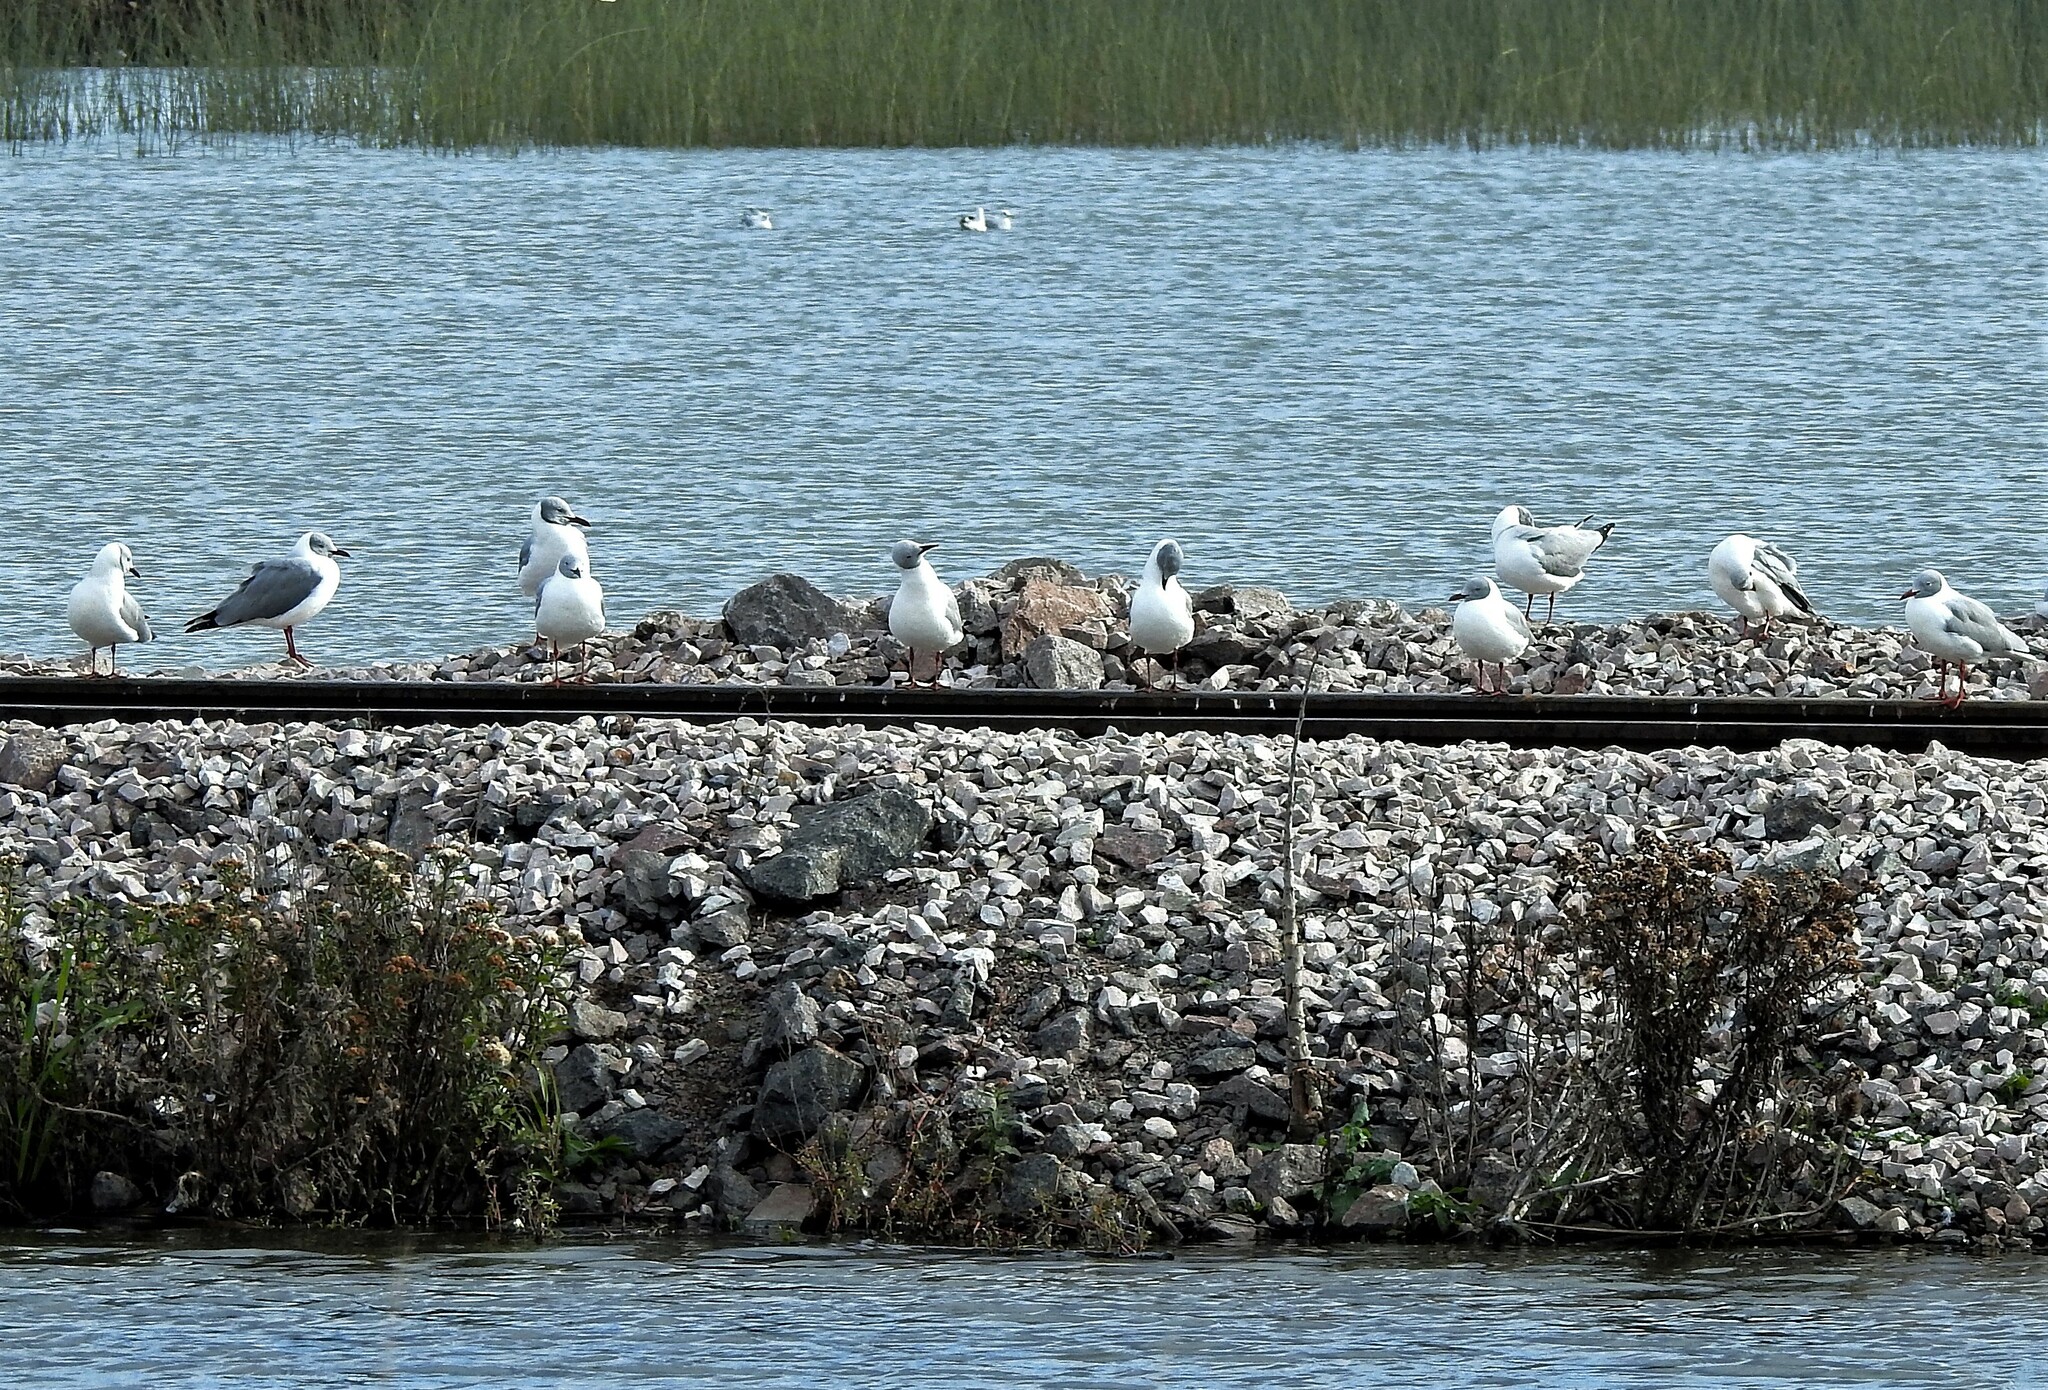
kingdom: Animalia
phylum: Chordata
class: Aves
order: Charadriiformes
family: Laridae
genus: Chroicocephalus
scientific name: Chroicocephalus cirrocephalus
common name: Grey-headed gull
